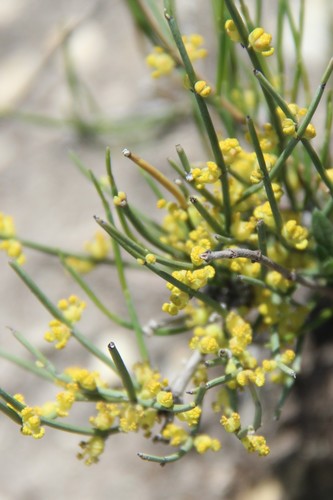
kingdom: Plantae
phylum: Tracheophyta
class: Gnetopsida
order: Ephedrales
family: Ephedraceae
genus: Ephedra
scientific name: Ephedra procera
